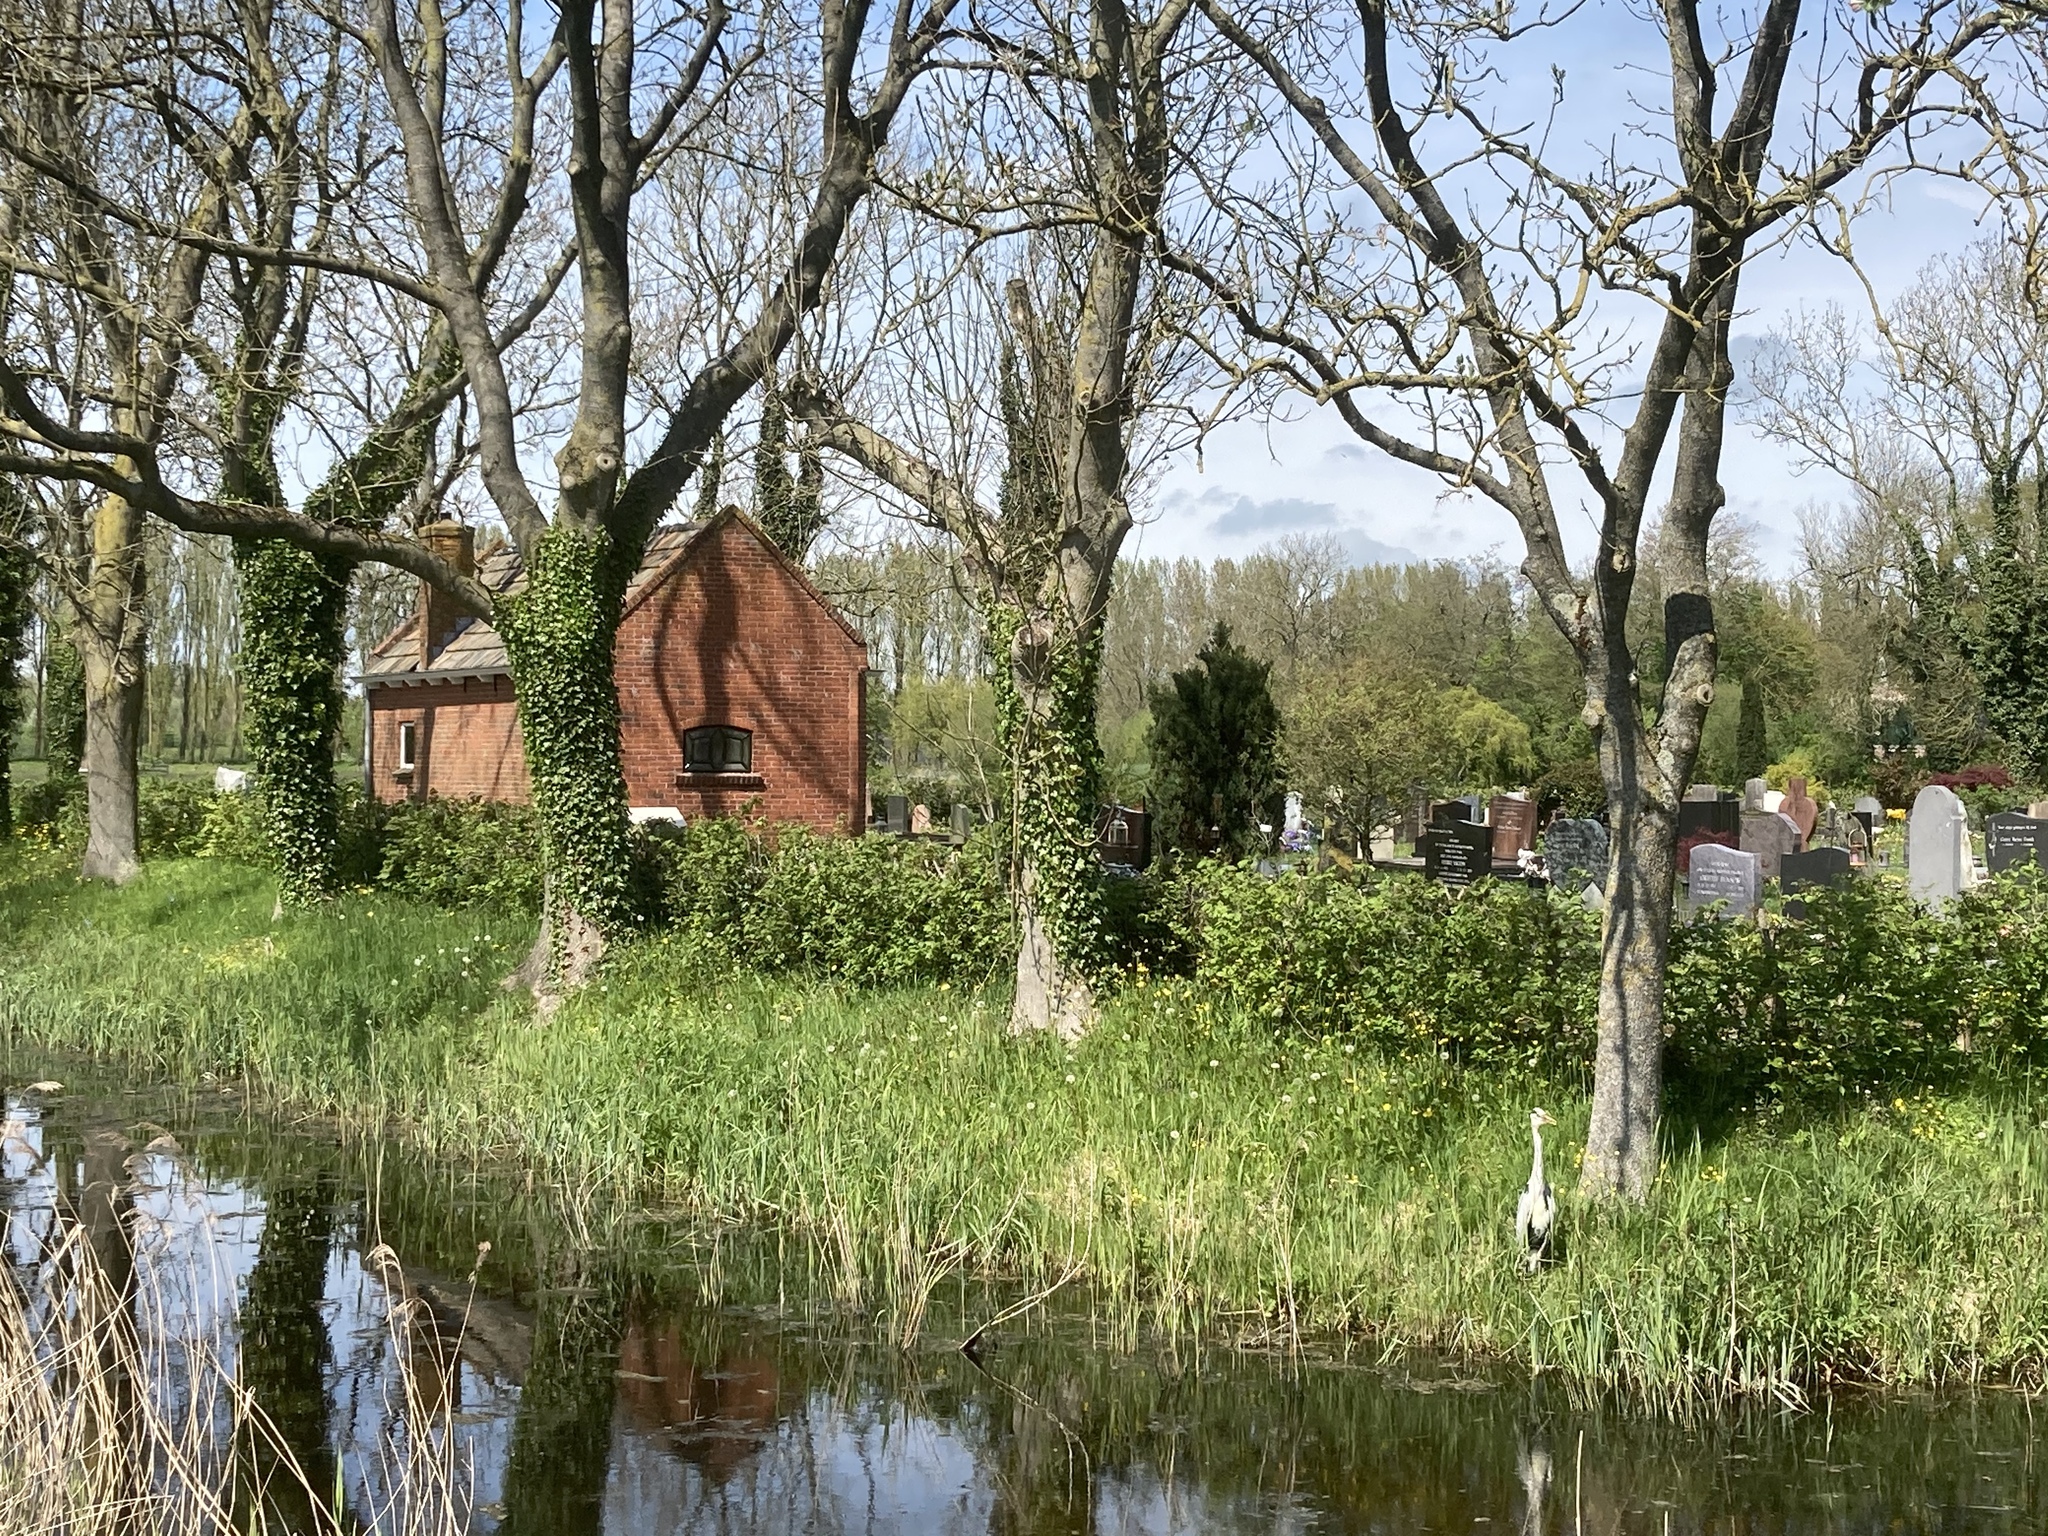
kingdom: Animalia
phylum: Chordata
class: Aves
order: Pelecaniformes
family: Ardeidae
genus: Ardea
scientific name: Ardea cinerea
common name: Grey heron
